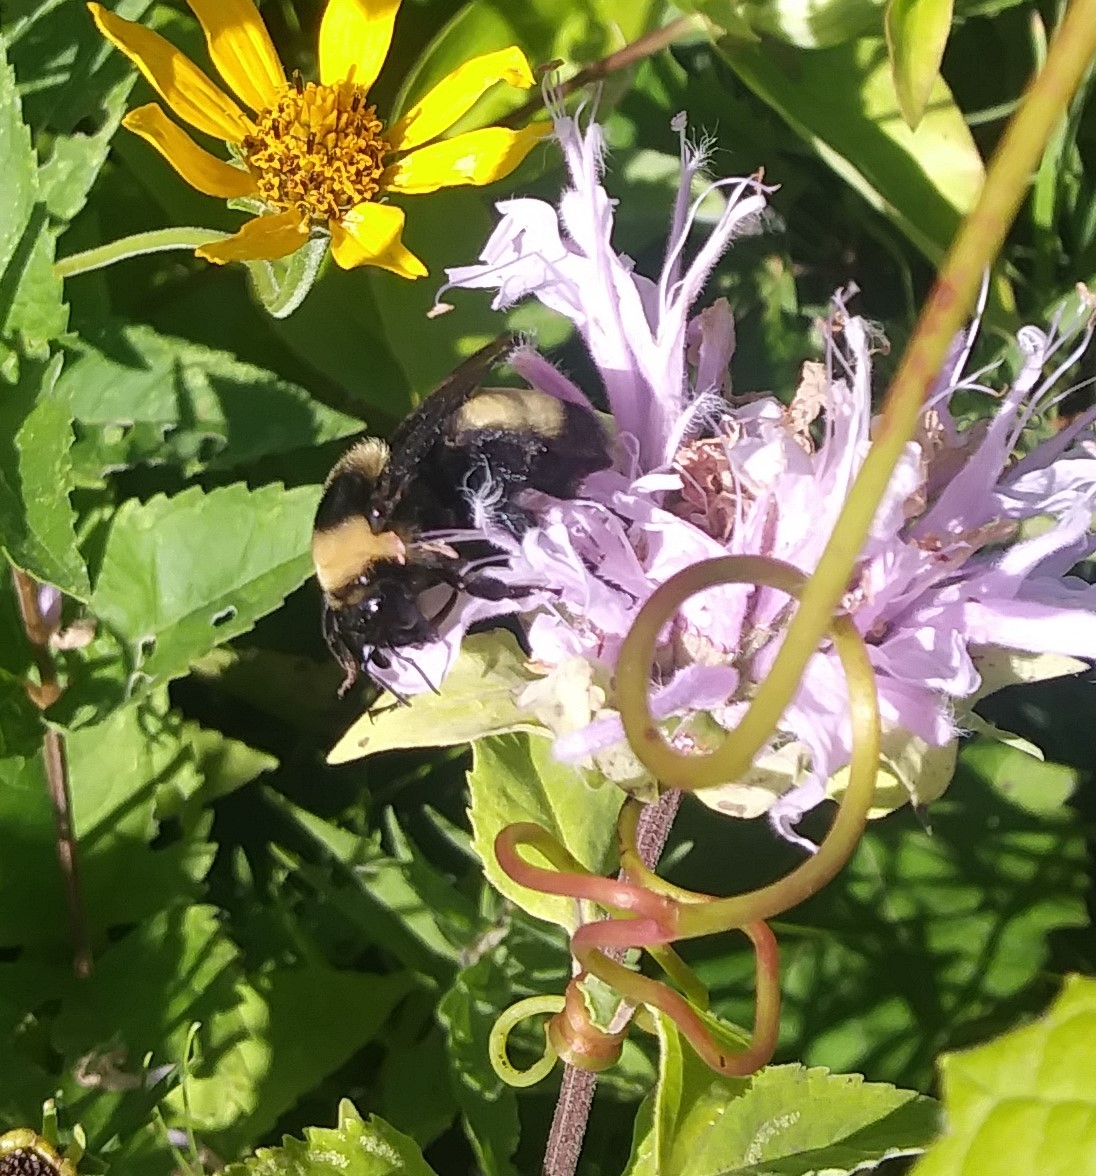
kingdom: Animalia
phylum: Arthropoda
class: Insecta
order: Hymenoptera
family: Apidae
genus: Bombus
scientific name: Bombus auricomus
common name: Black and gold bumble bee
